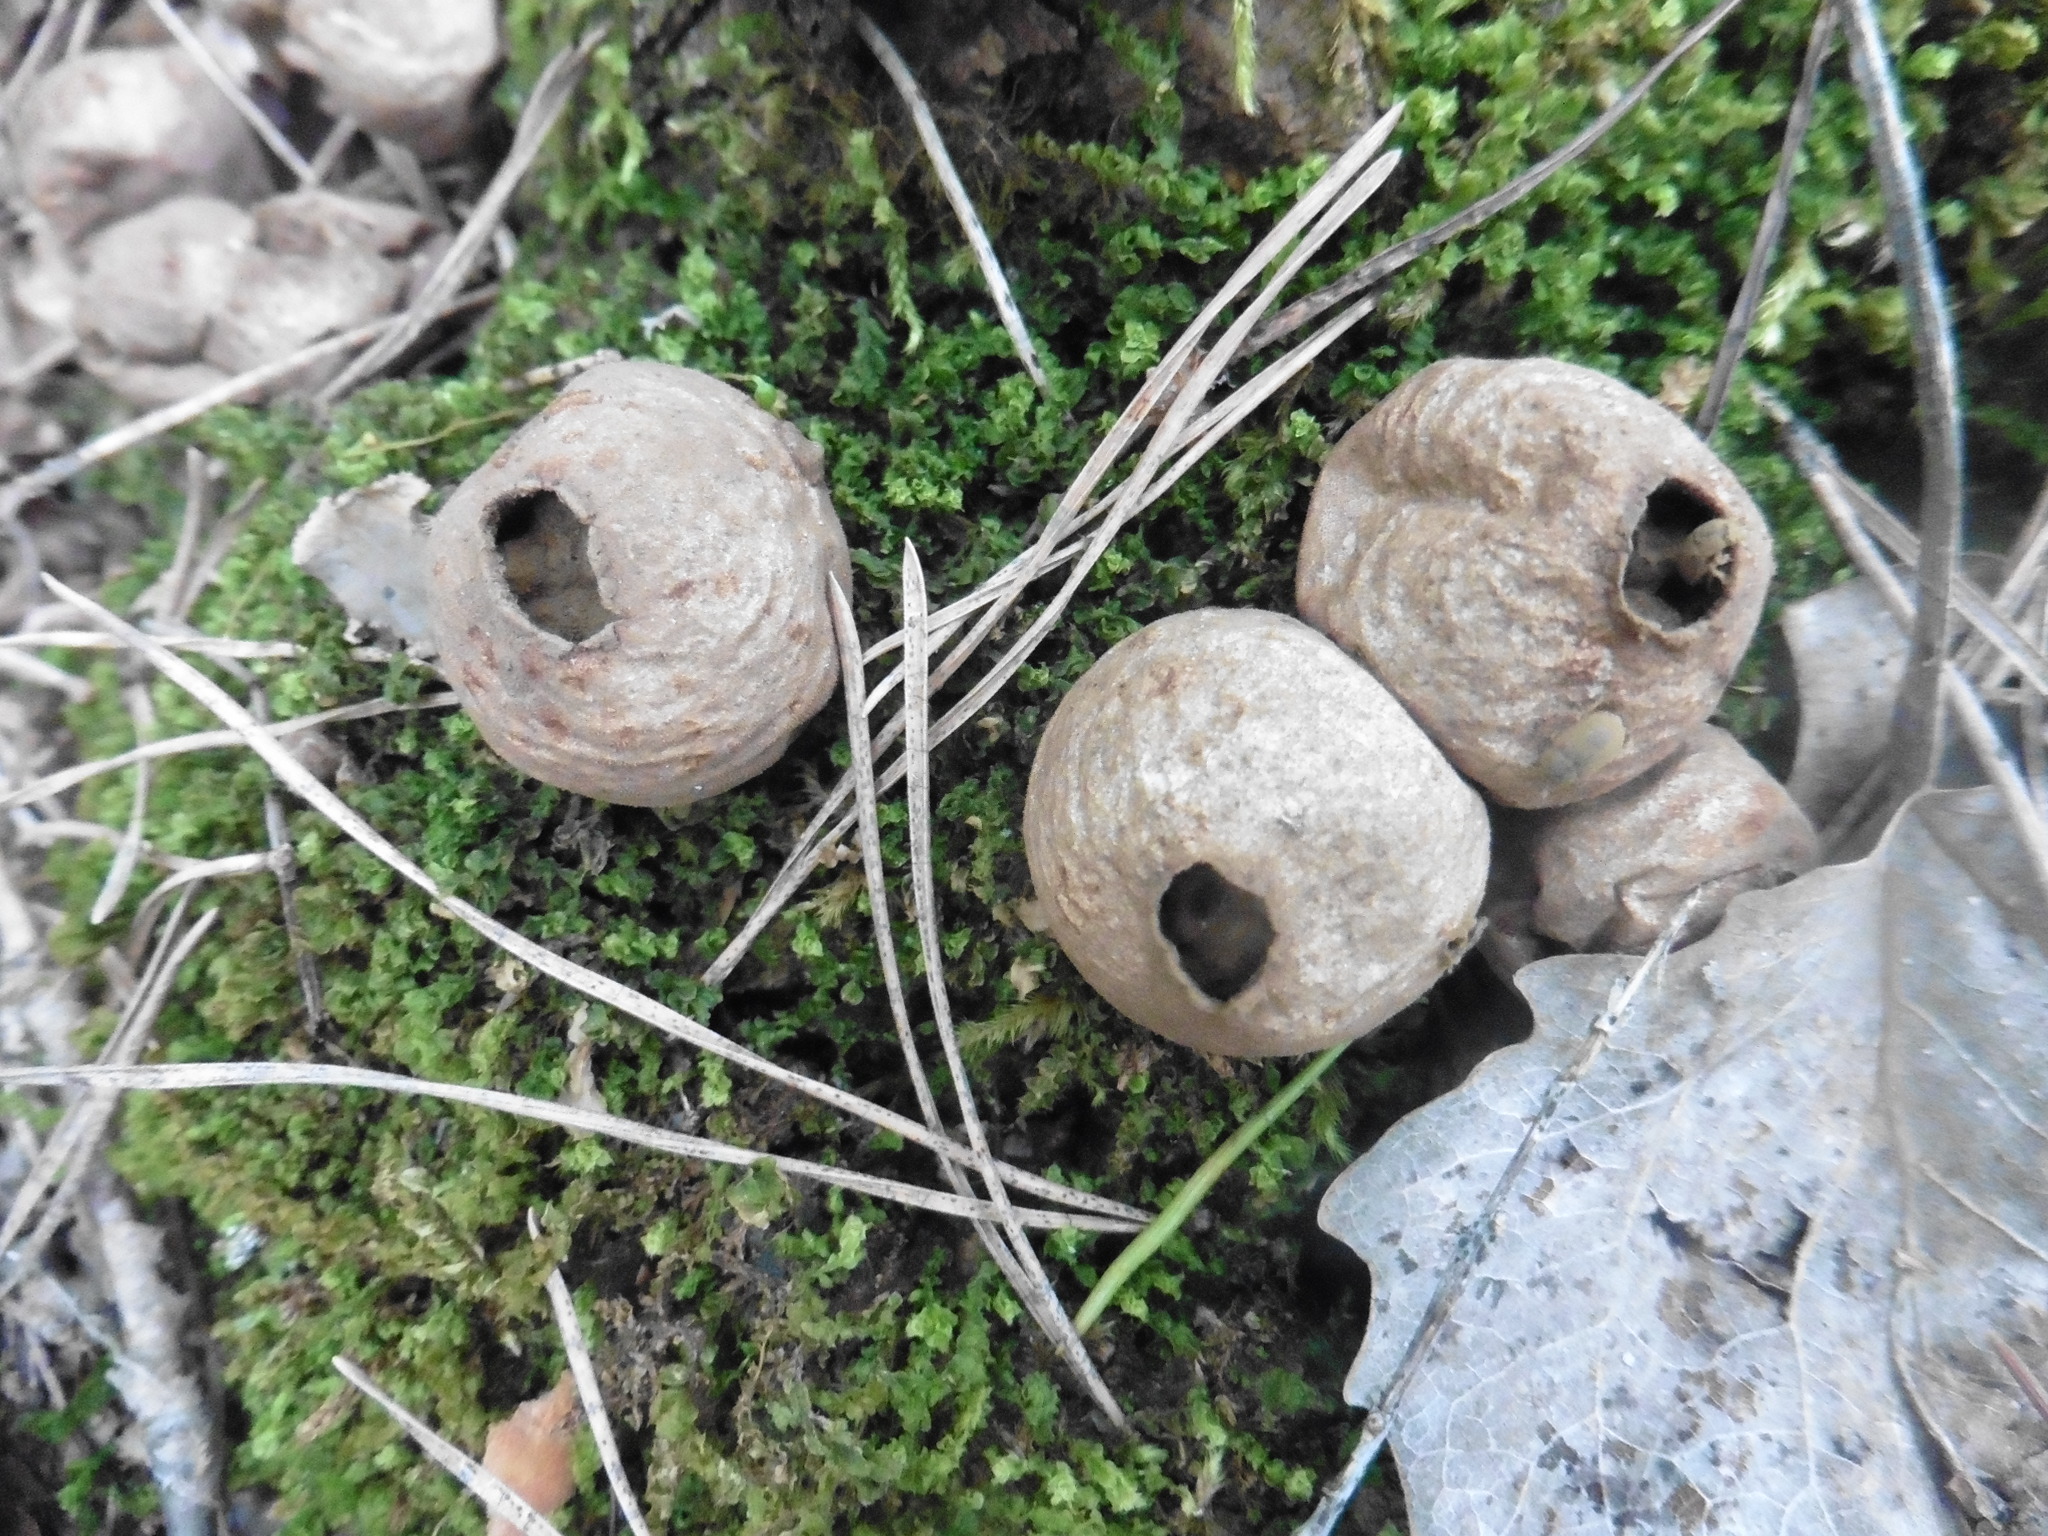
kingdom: Fungi
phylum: Basidiomycota
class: Agaricomycetes
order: Agaricales
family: Lycoperdaceae
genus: Apioperdon
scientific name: Apioperdon pyriforme
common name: Pear-shaped puffball
